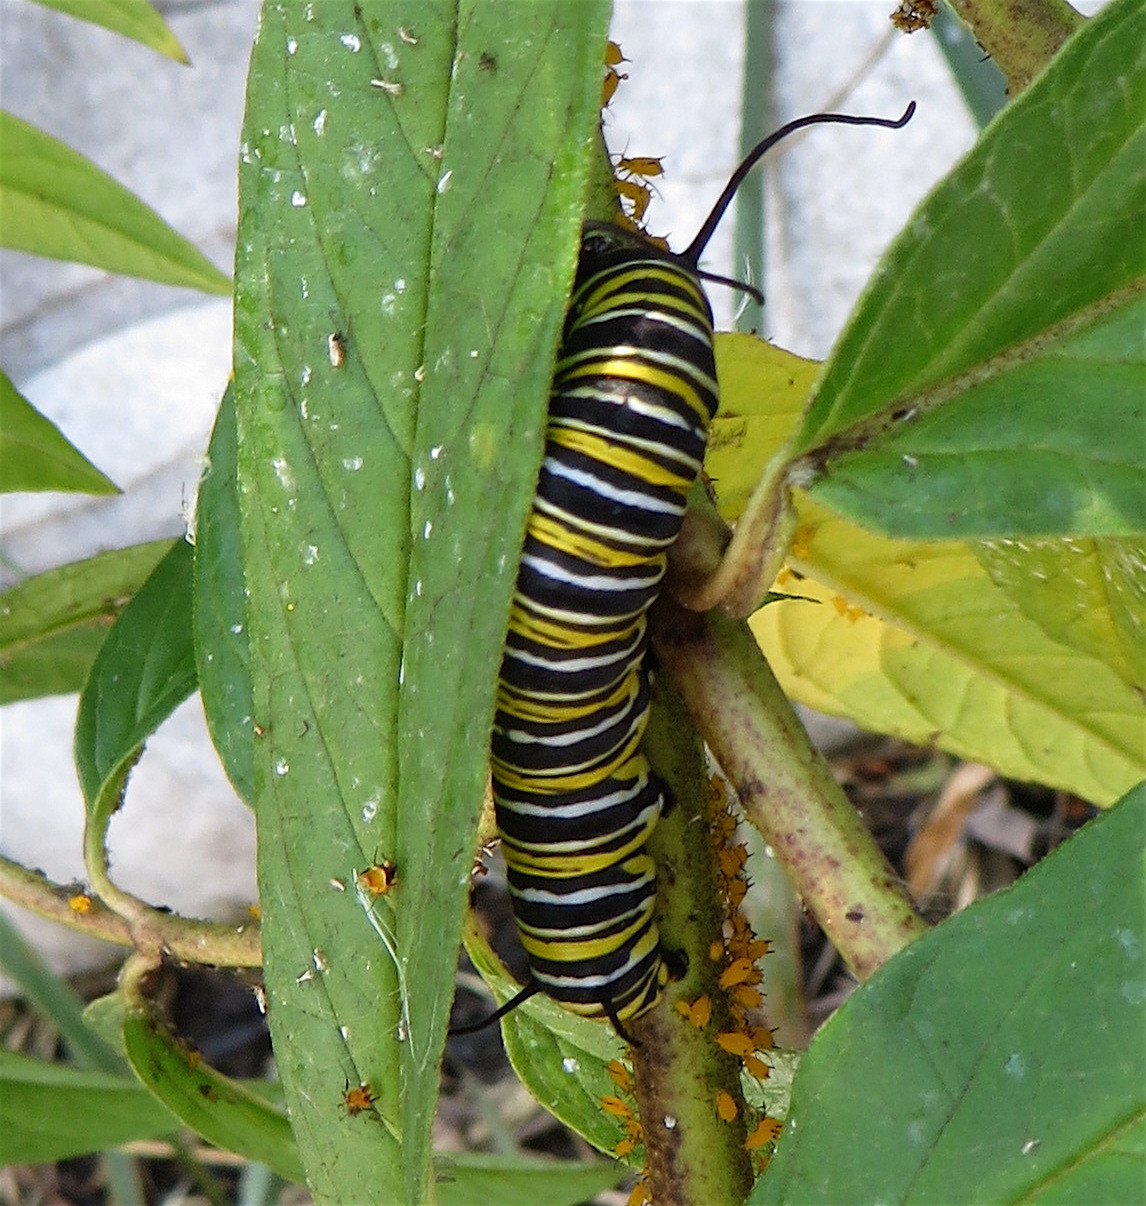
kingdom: Animalia
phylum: Arthropoda
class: Insecta
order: Lepidoptera
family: Nymphalidae
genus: Danaus
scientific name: Danaus plexippus
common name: Monarch
